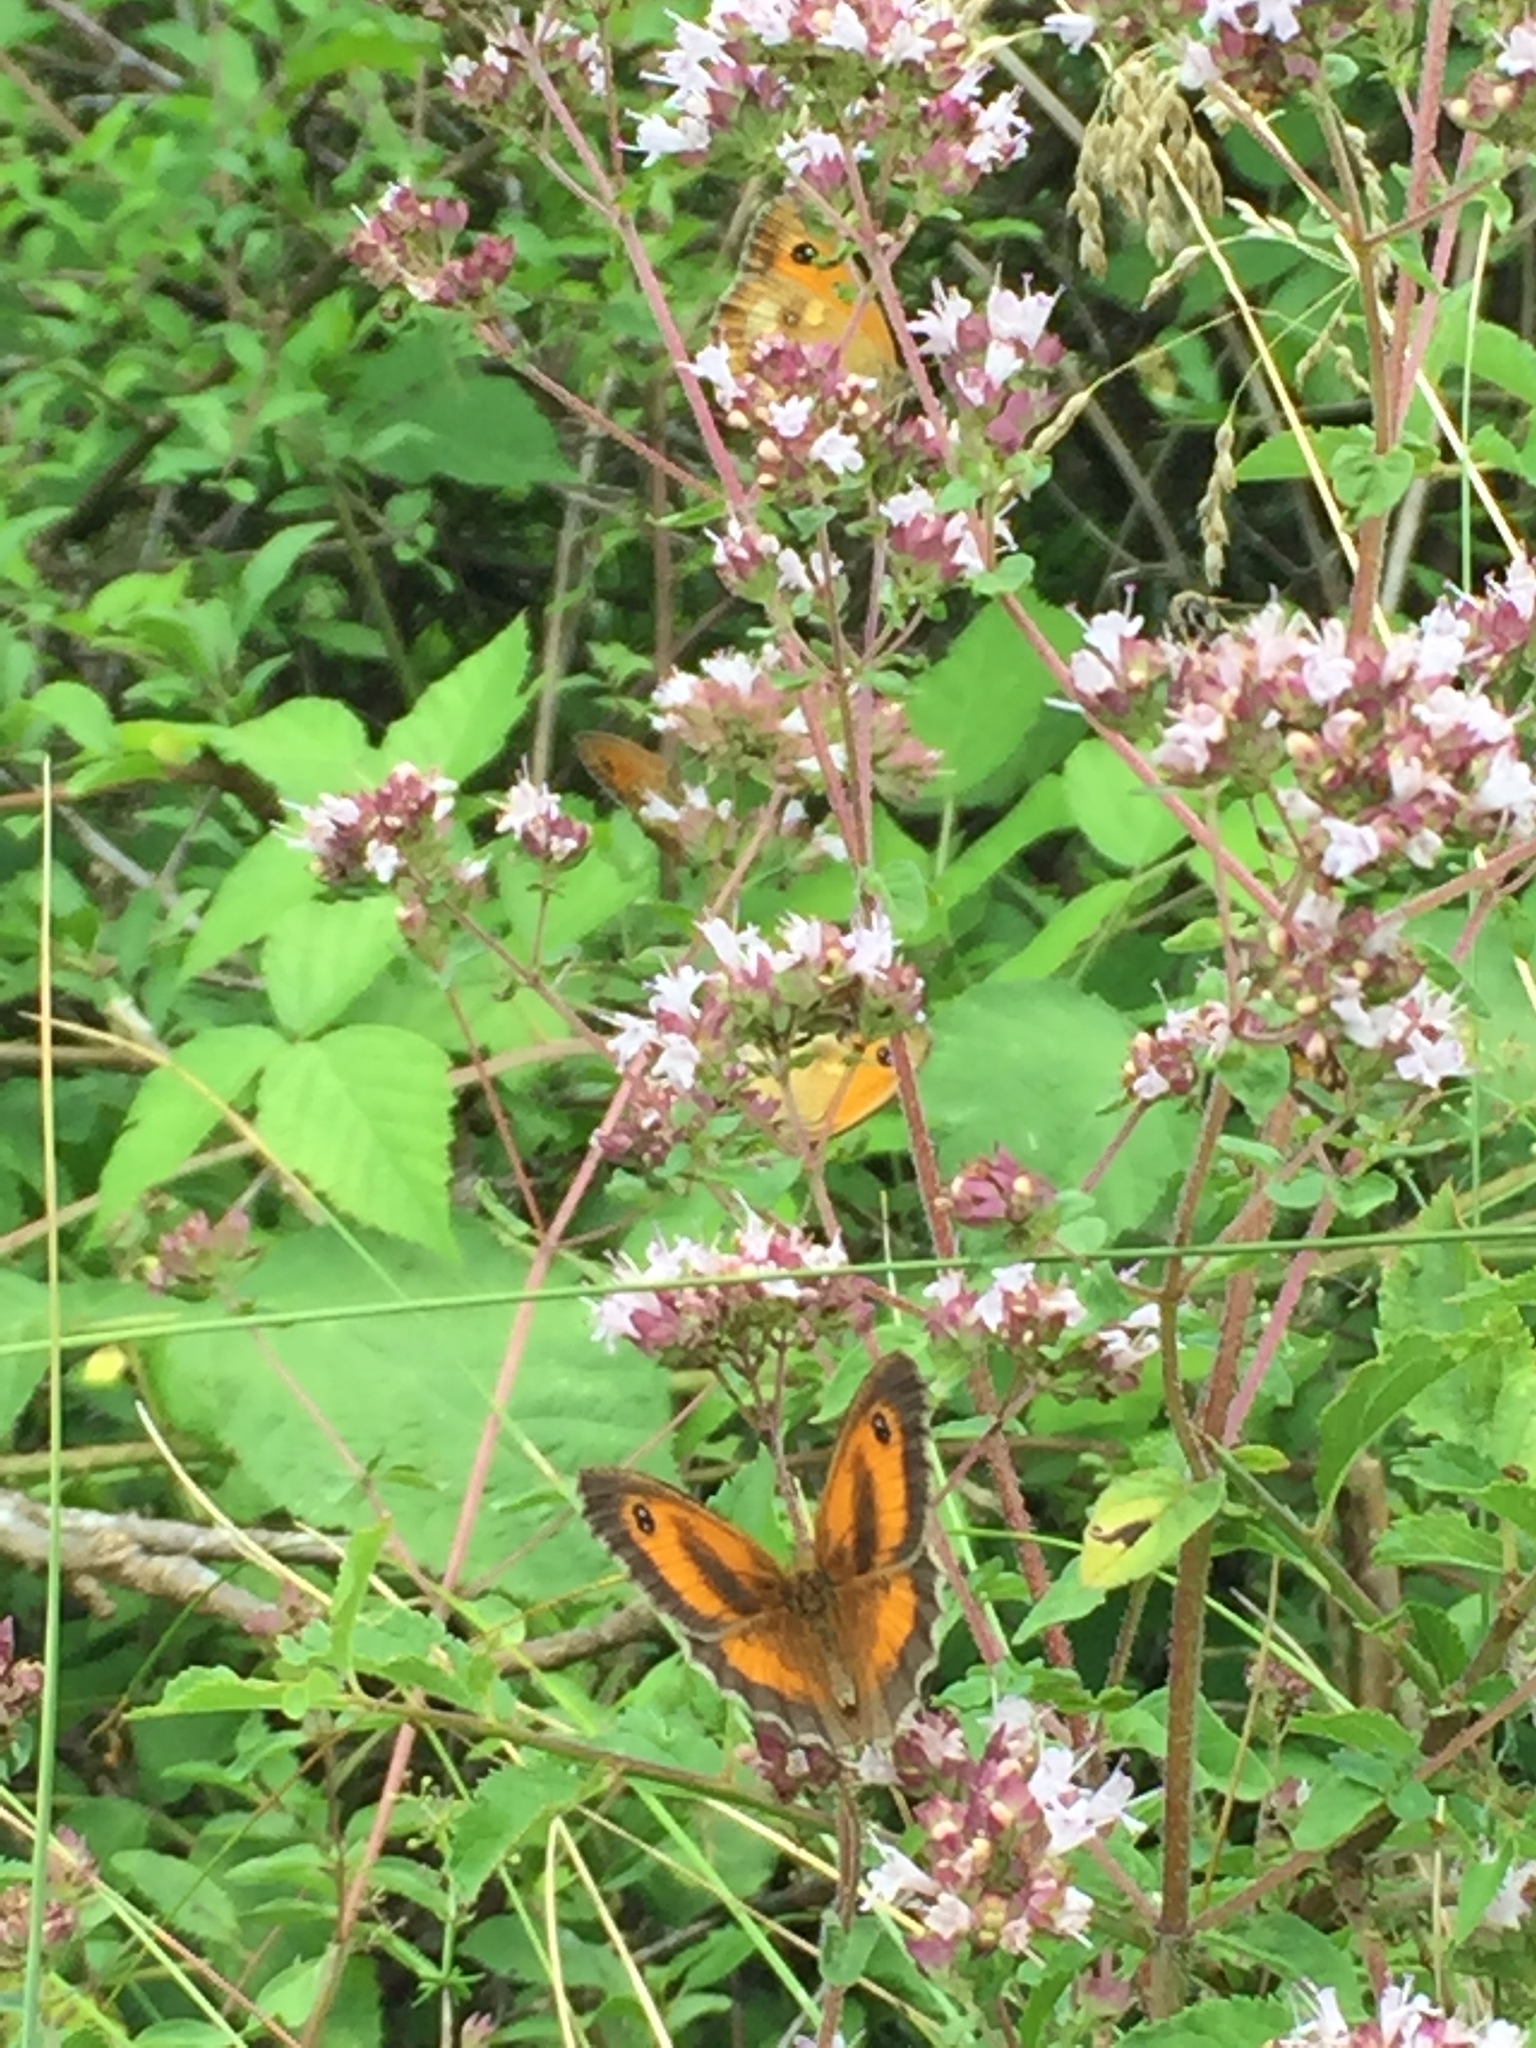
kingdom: Animalia
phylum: Arthropoda
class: Insecta
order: Lepidoptera
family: Nymphalidae
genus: Pyronia
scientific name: Pyronia tithonus
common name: Gatekeeper
